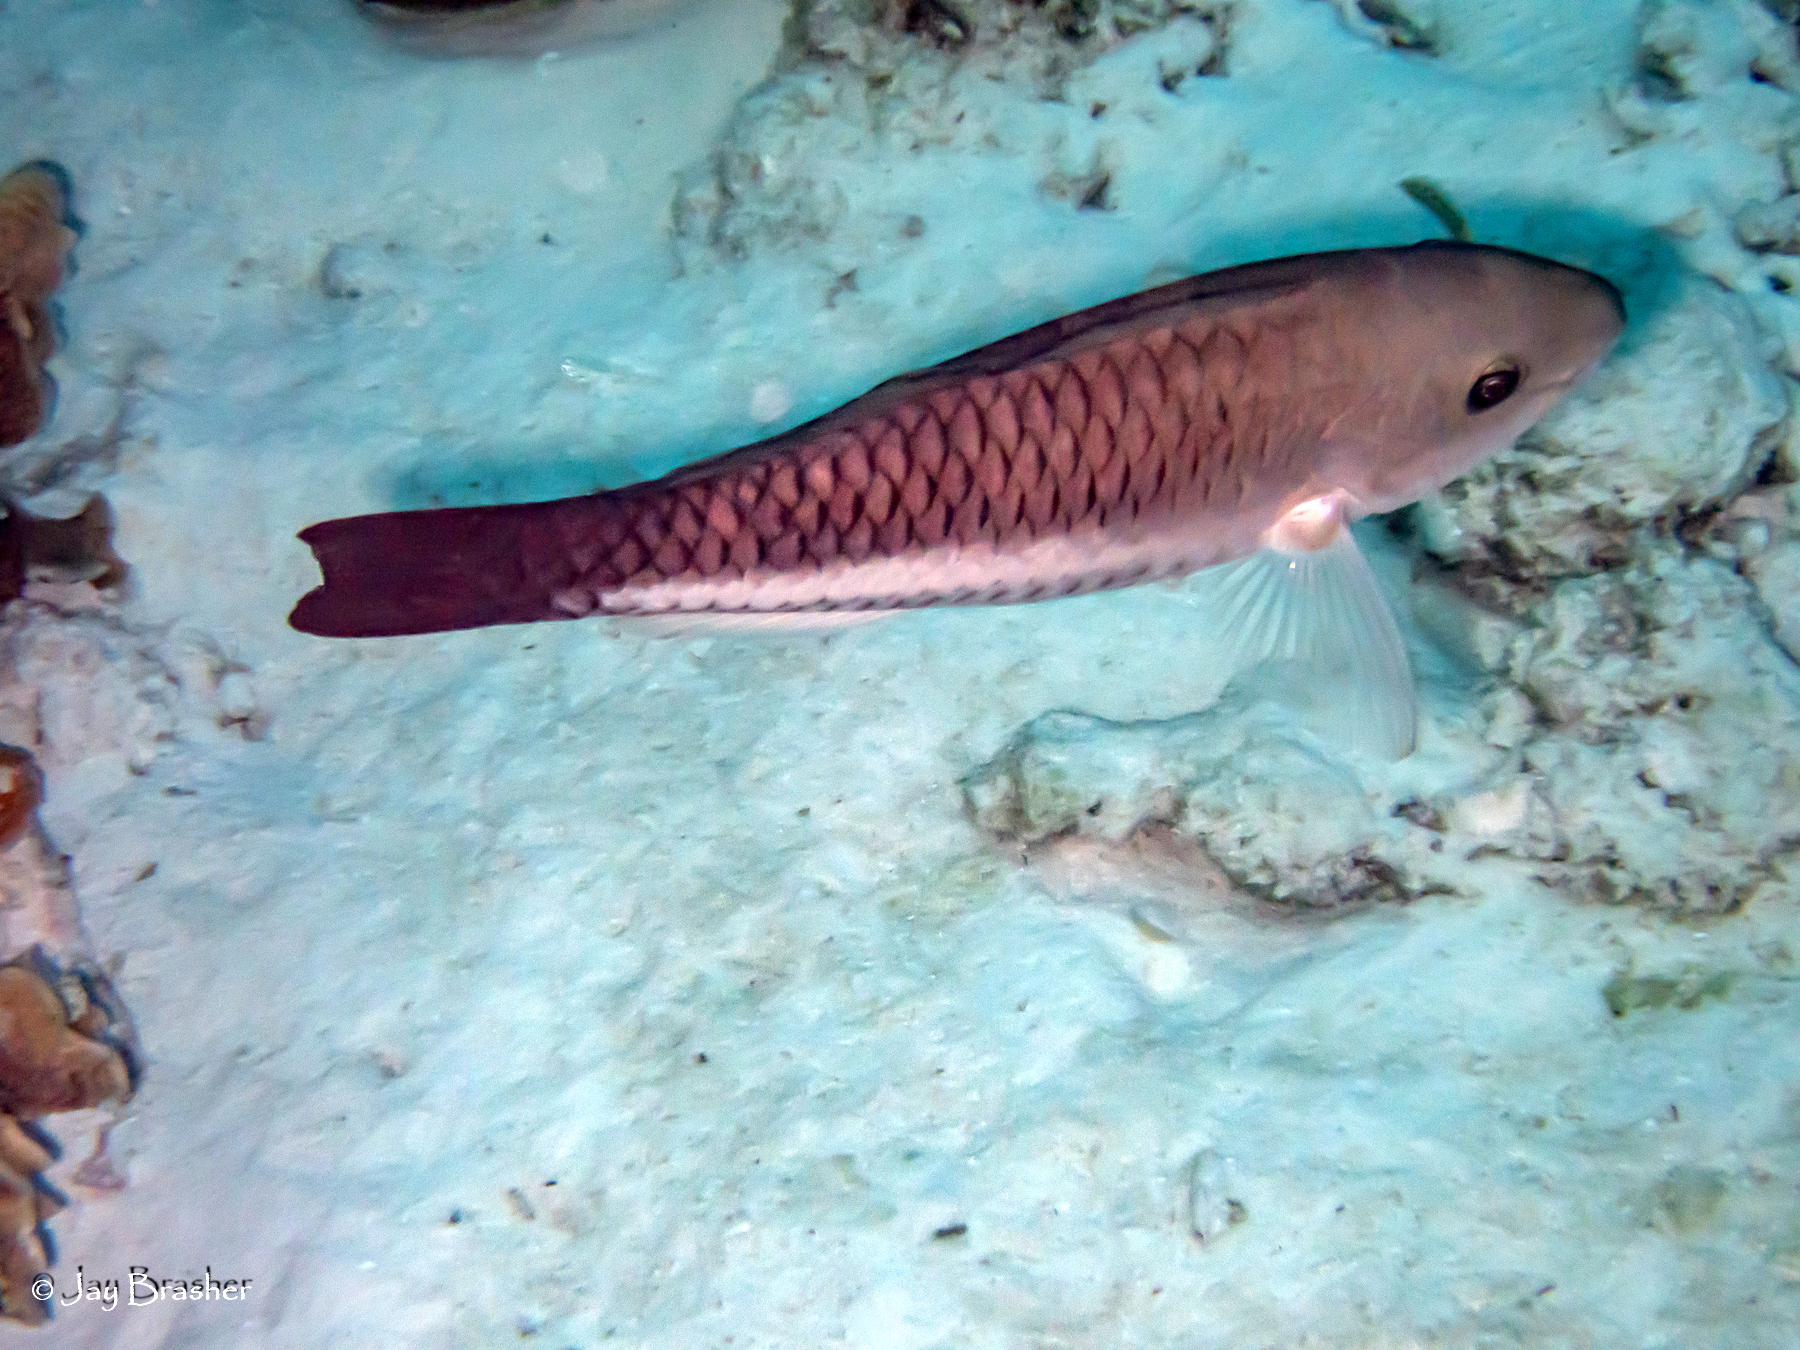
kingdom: Animalia
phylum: Chordata
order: Perciformes
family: Scaridae
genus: Scarus
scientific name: Scarus vetula
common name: Queen parrotfish
